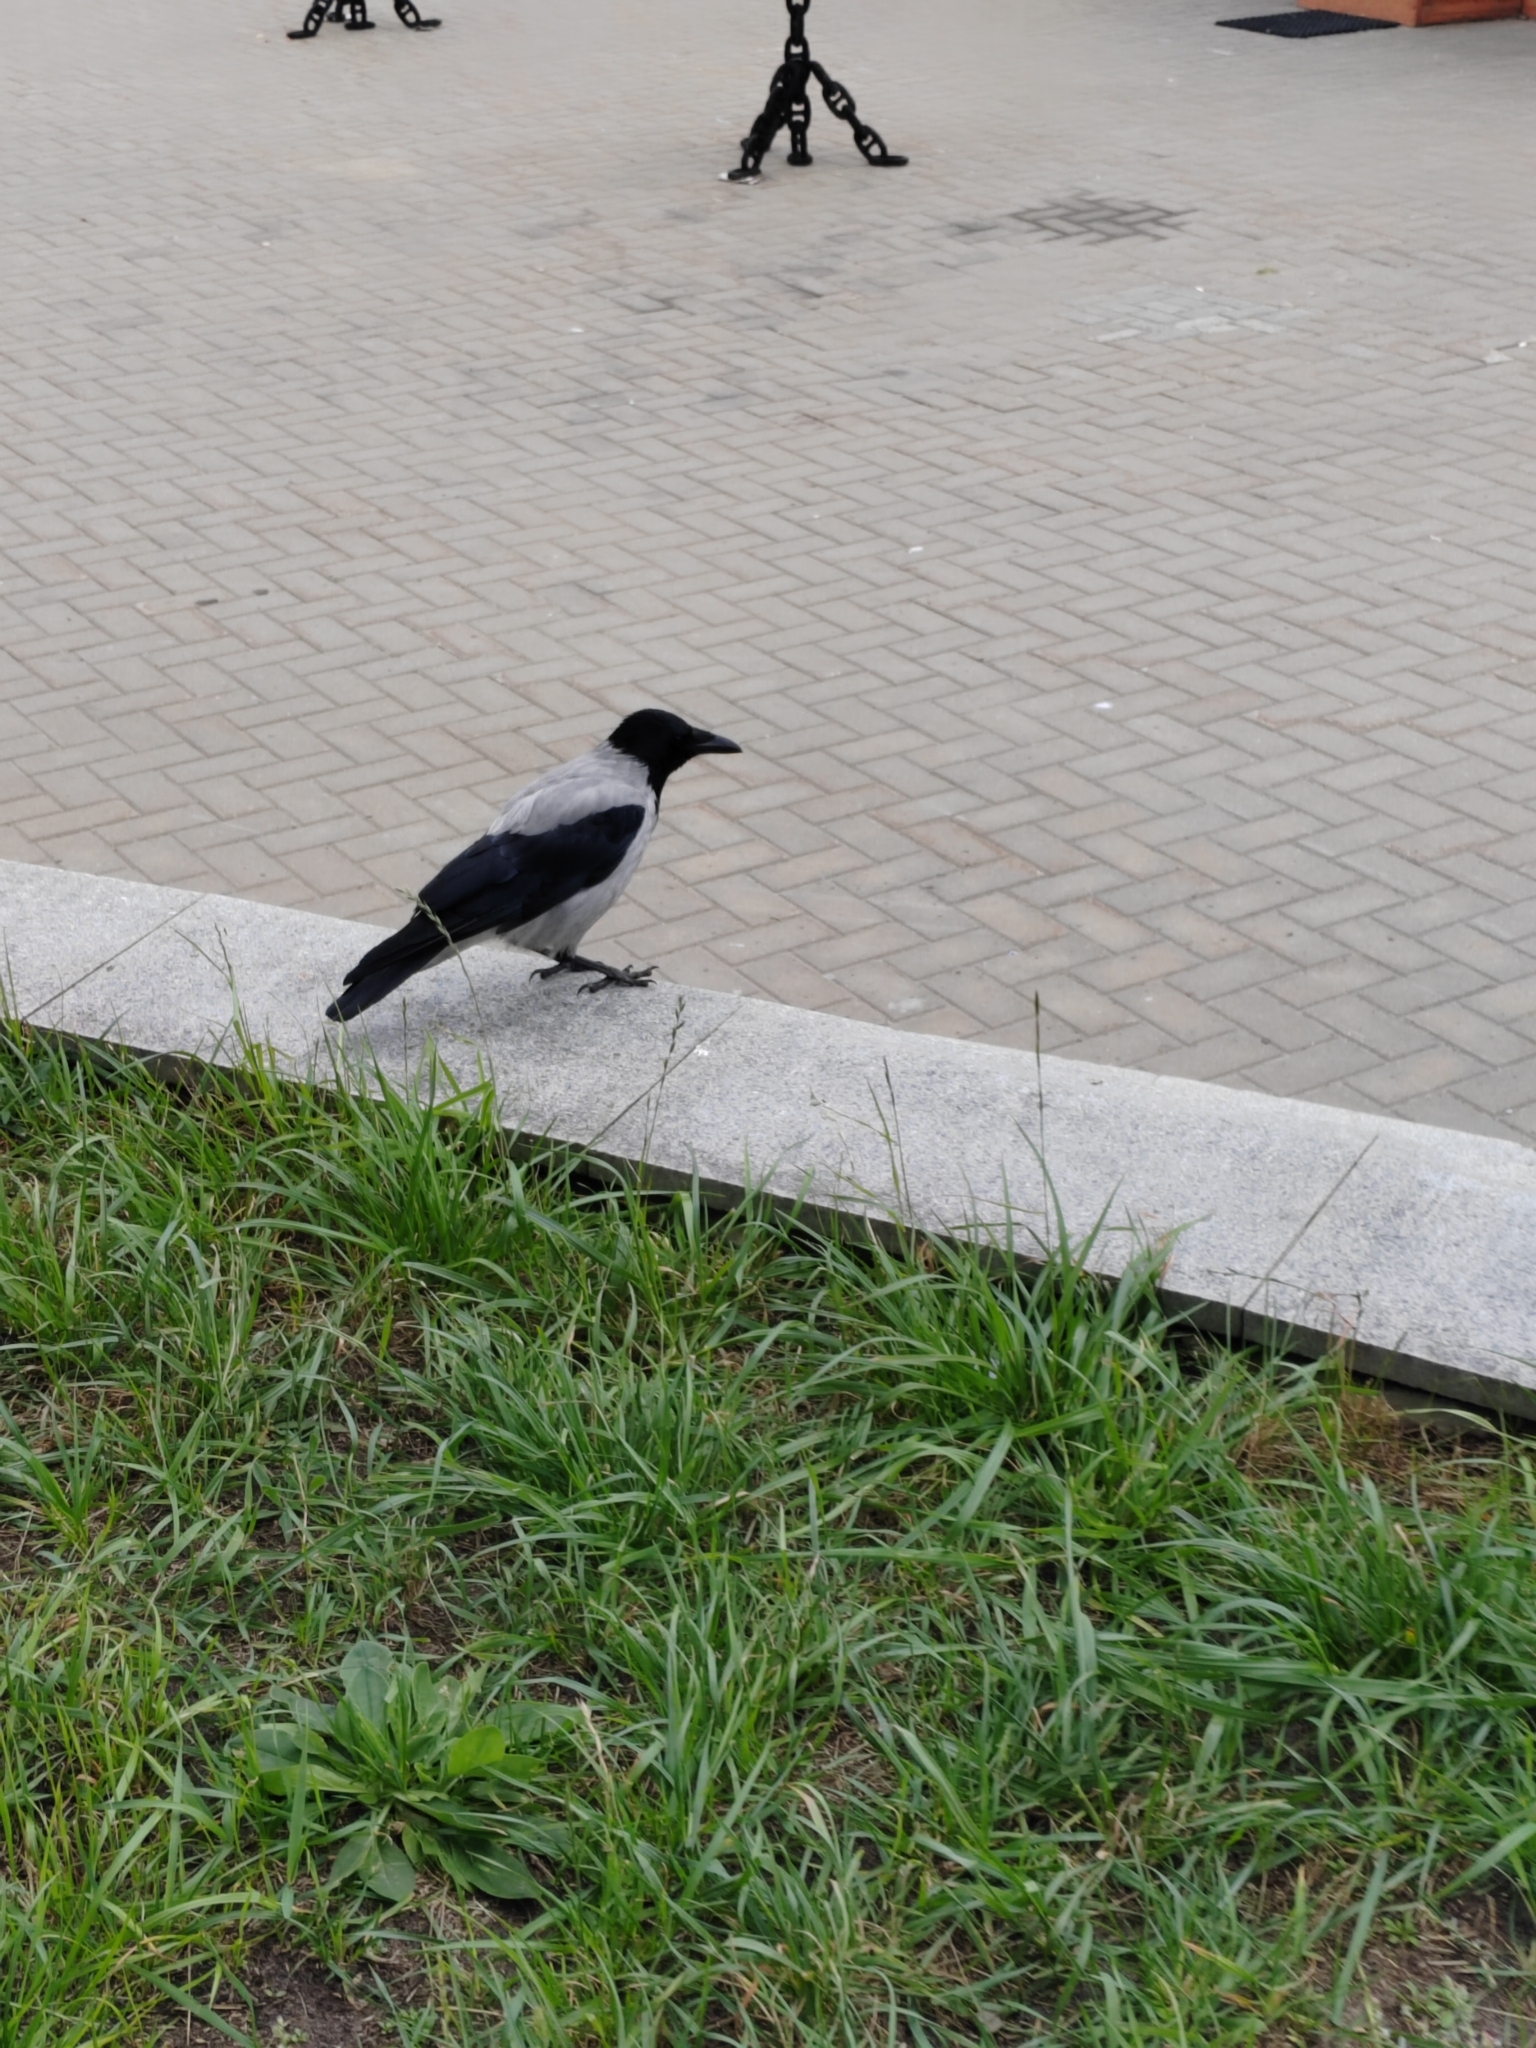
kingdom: Animalia
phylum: Chordata
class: Aves
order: Passeriformes
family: Corvidae
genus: Corvus
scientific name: Corvus cornix
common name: Hooded crow
